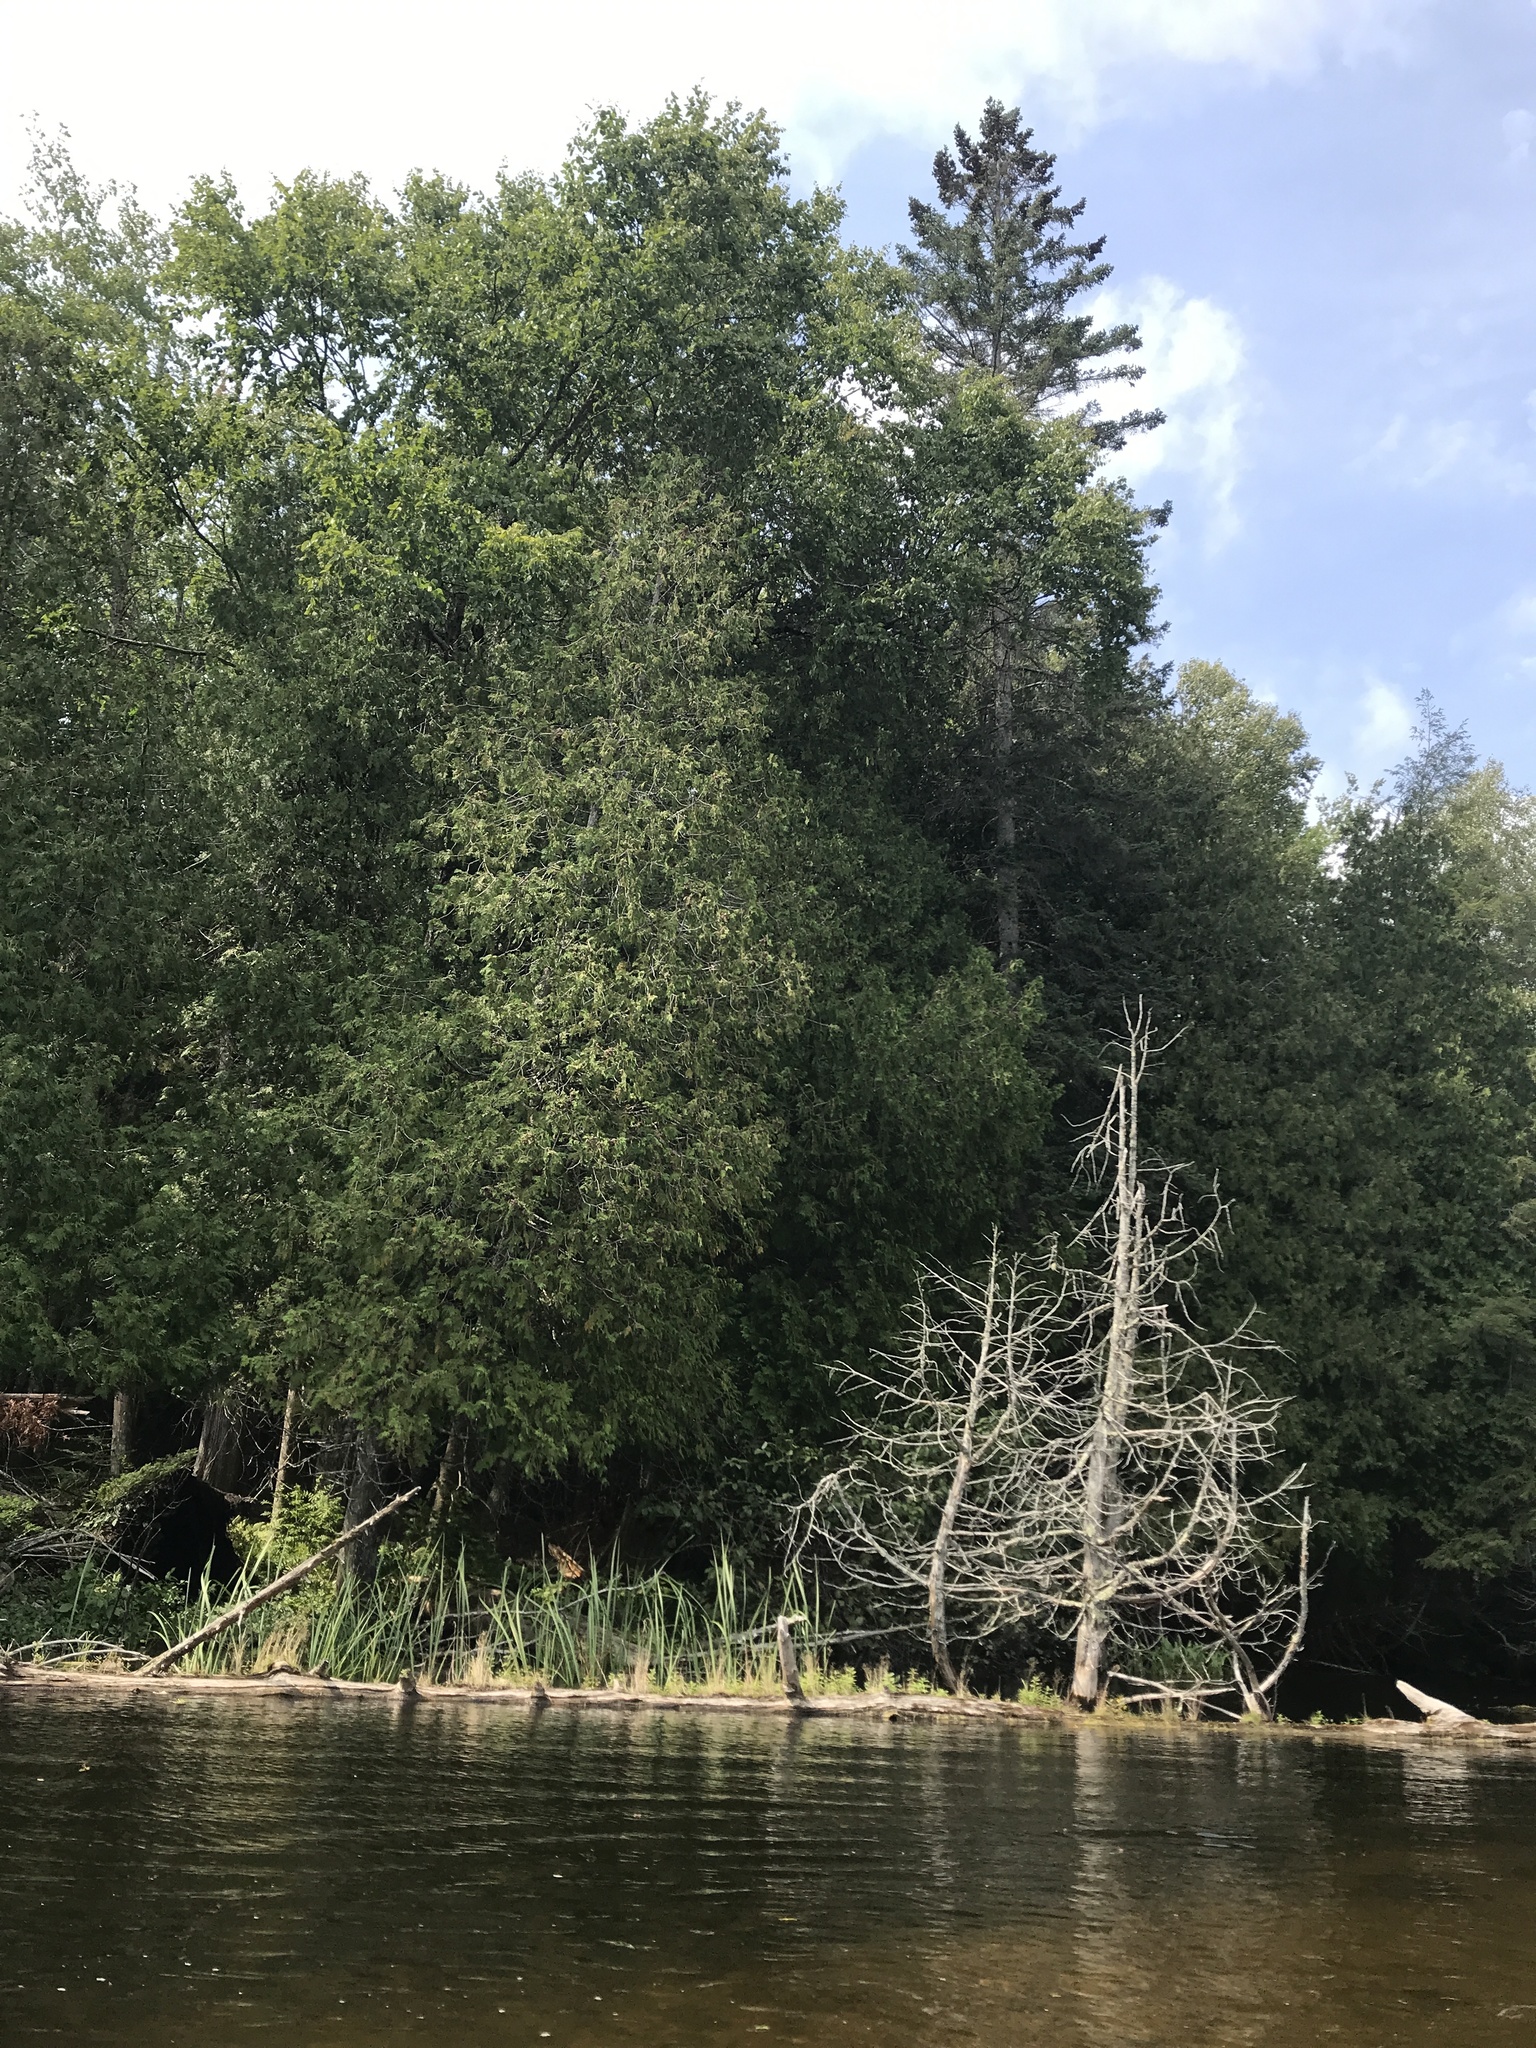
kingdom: Plantae
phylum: Tracheophyta
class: Pinopsida
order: Pinales
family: Cupressaceae
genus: Thuja
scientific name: Thuja occidentalis
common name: Northern white-cedar
